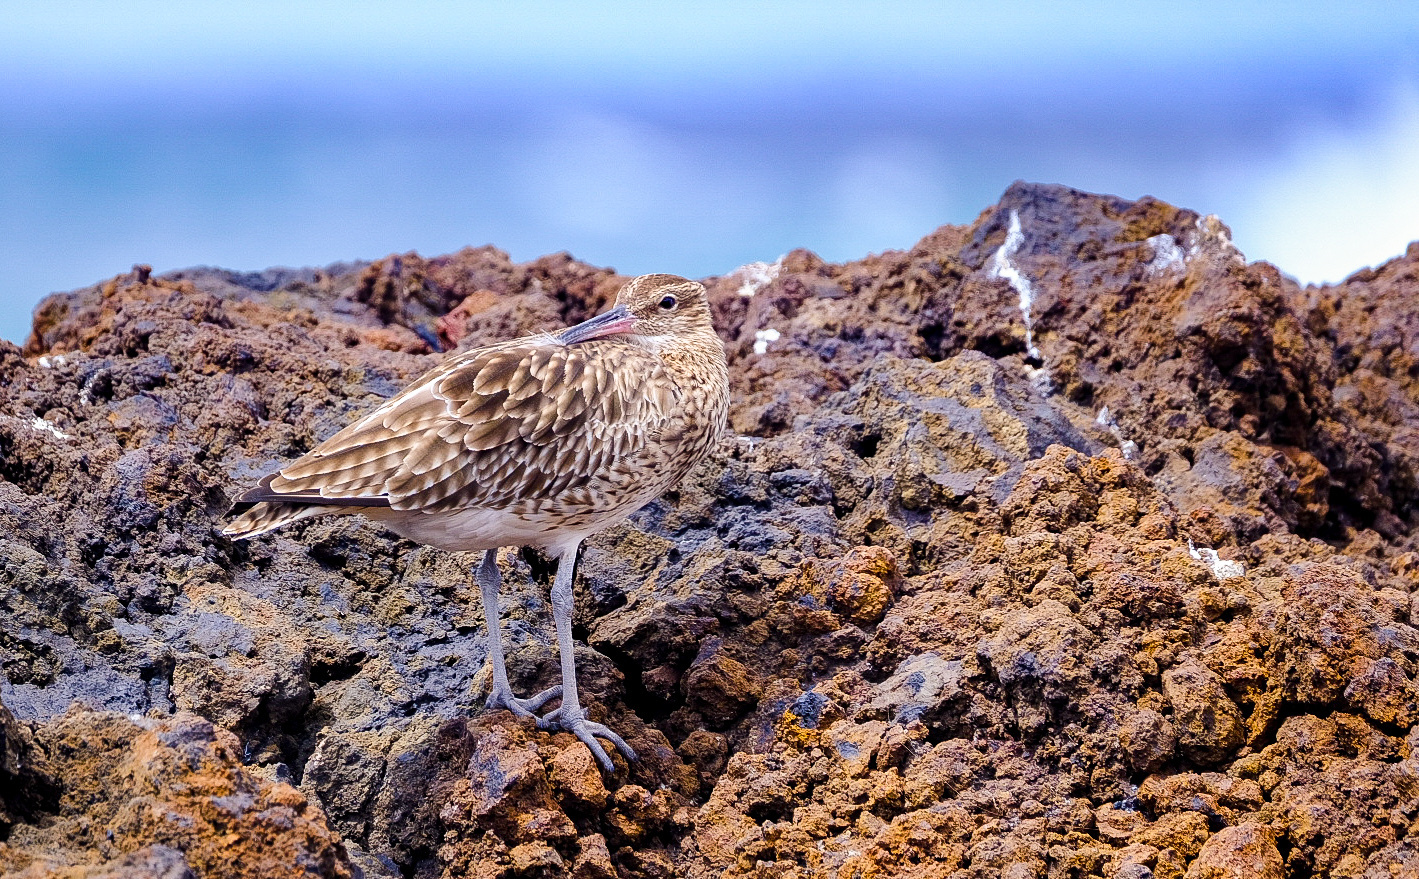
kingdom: Animalia
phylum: Chordata
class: Aves
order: Charadriiformes
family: Scolopacidae
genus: Numenius
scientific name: Numenius phaeopus
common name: Whimbrel
